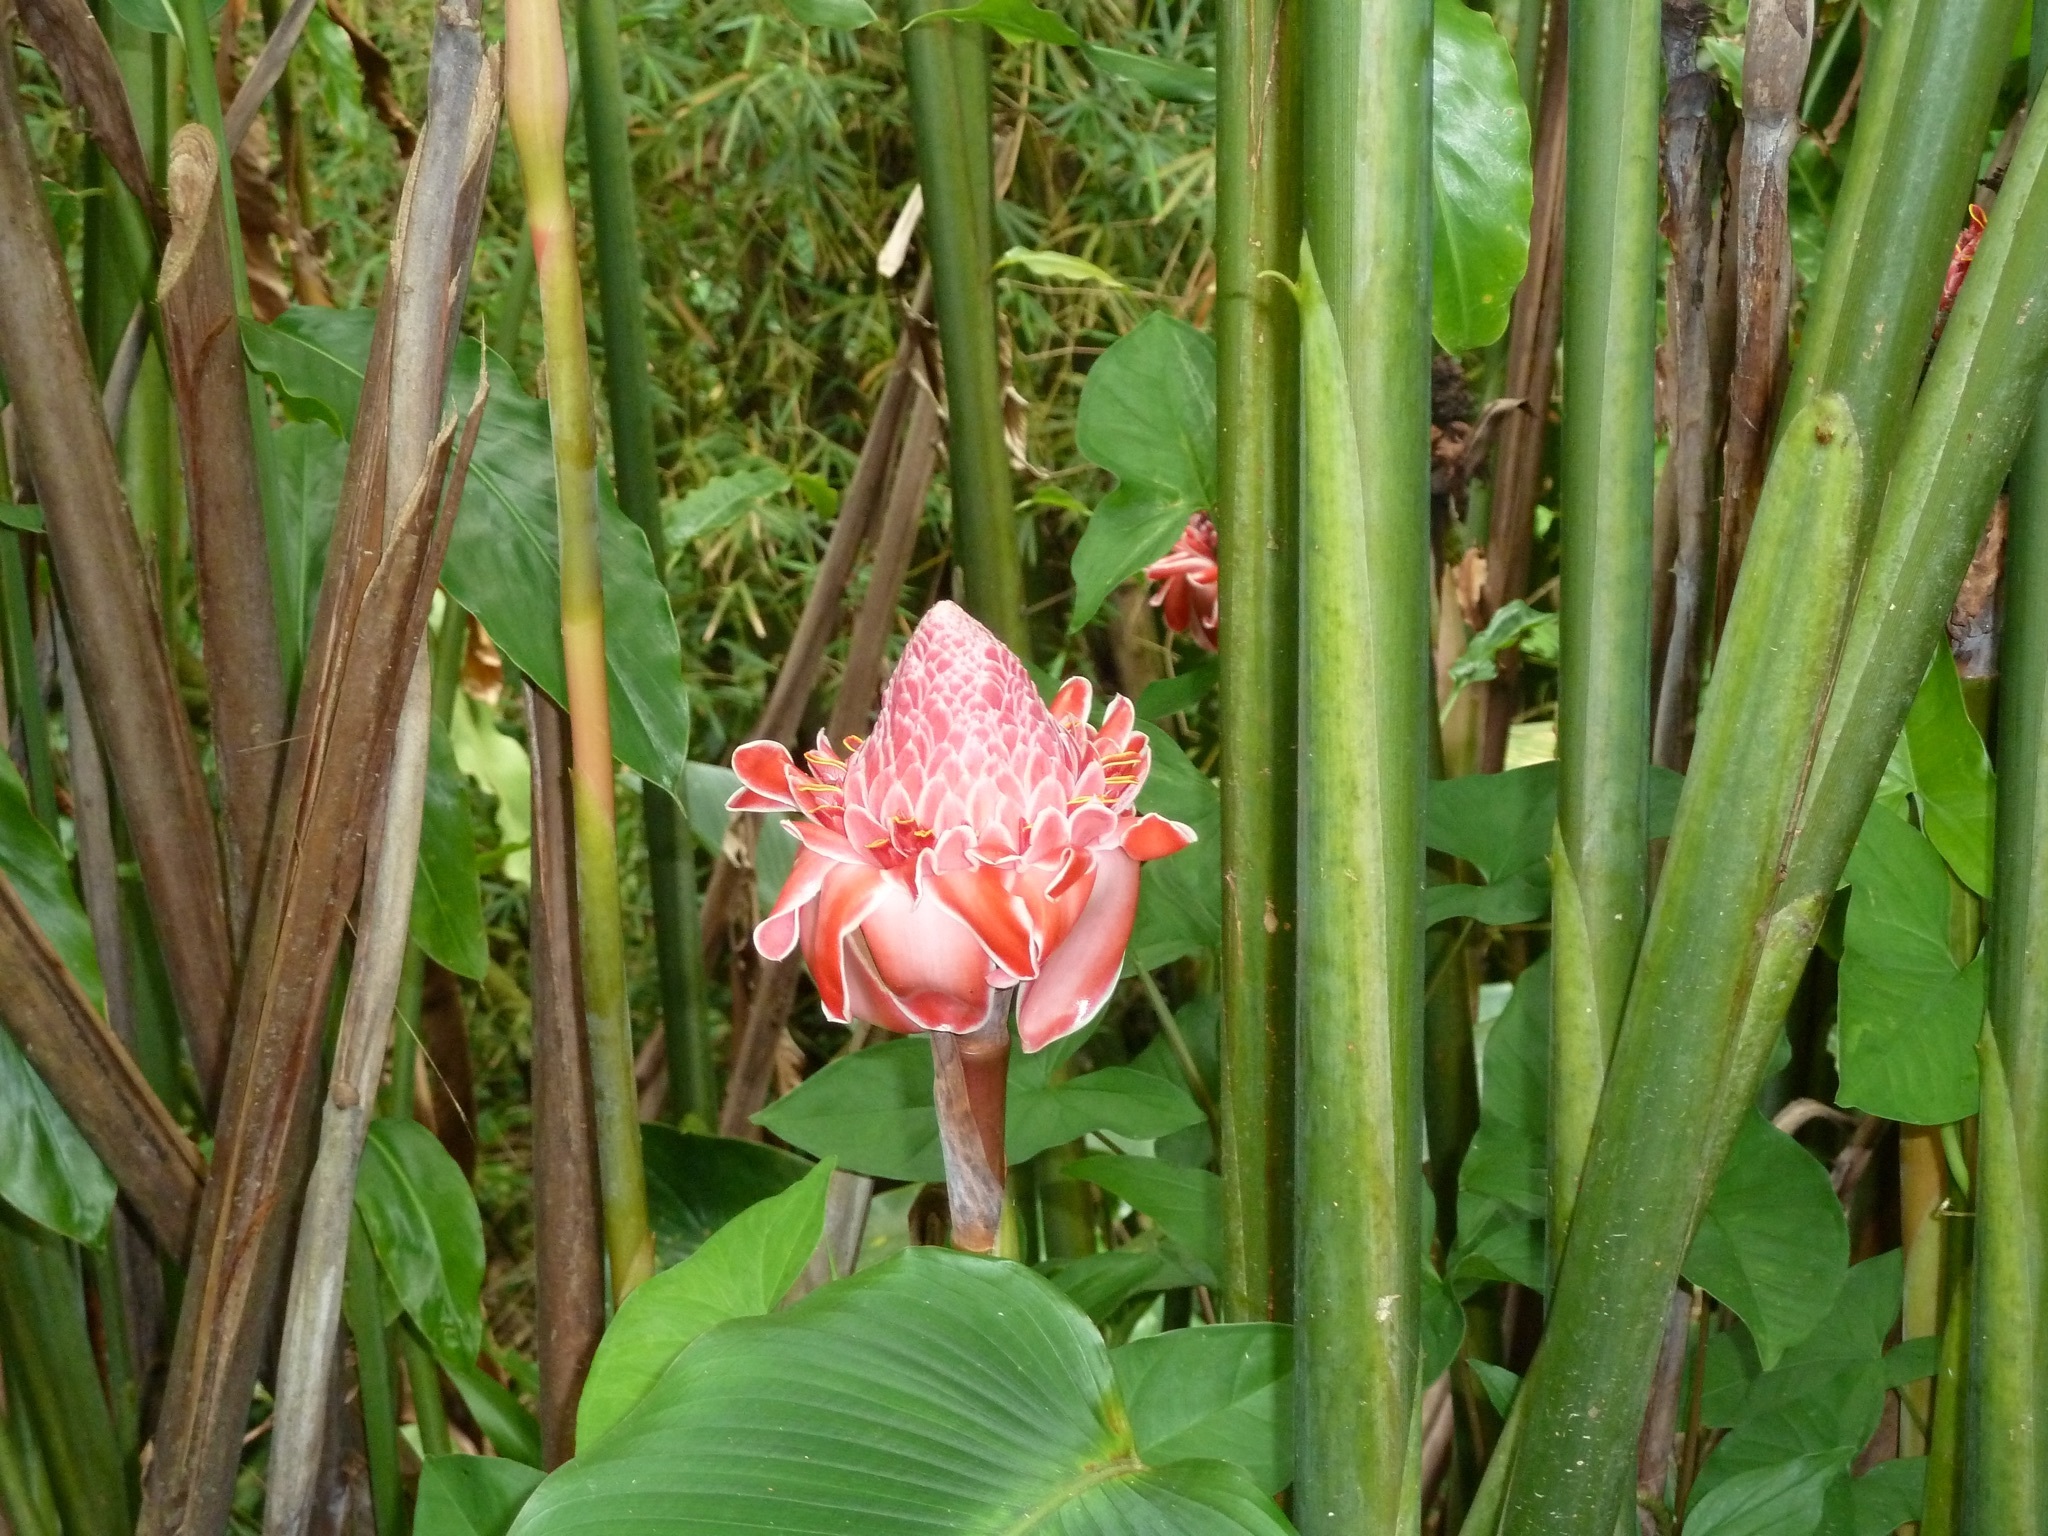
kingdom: Plantae
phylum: Tracheophyta
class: Liliopsida
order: Zingiberales
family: Zingiberaceae
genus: Etlingera
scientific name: Etlingera elatior
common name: Philippine waxflower
